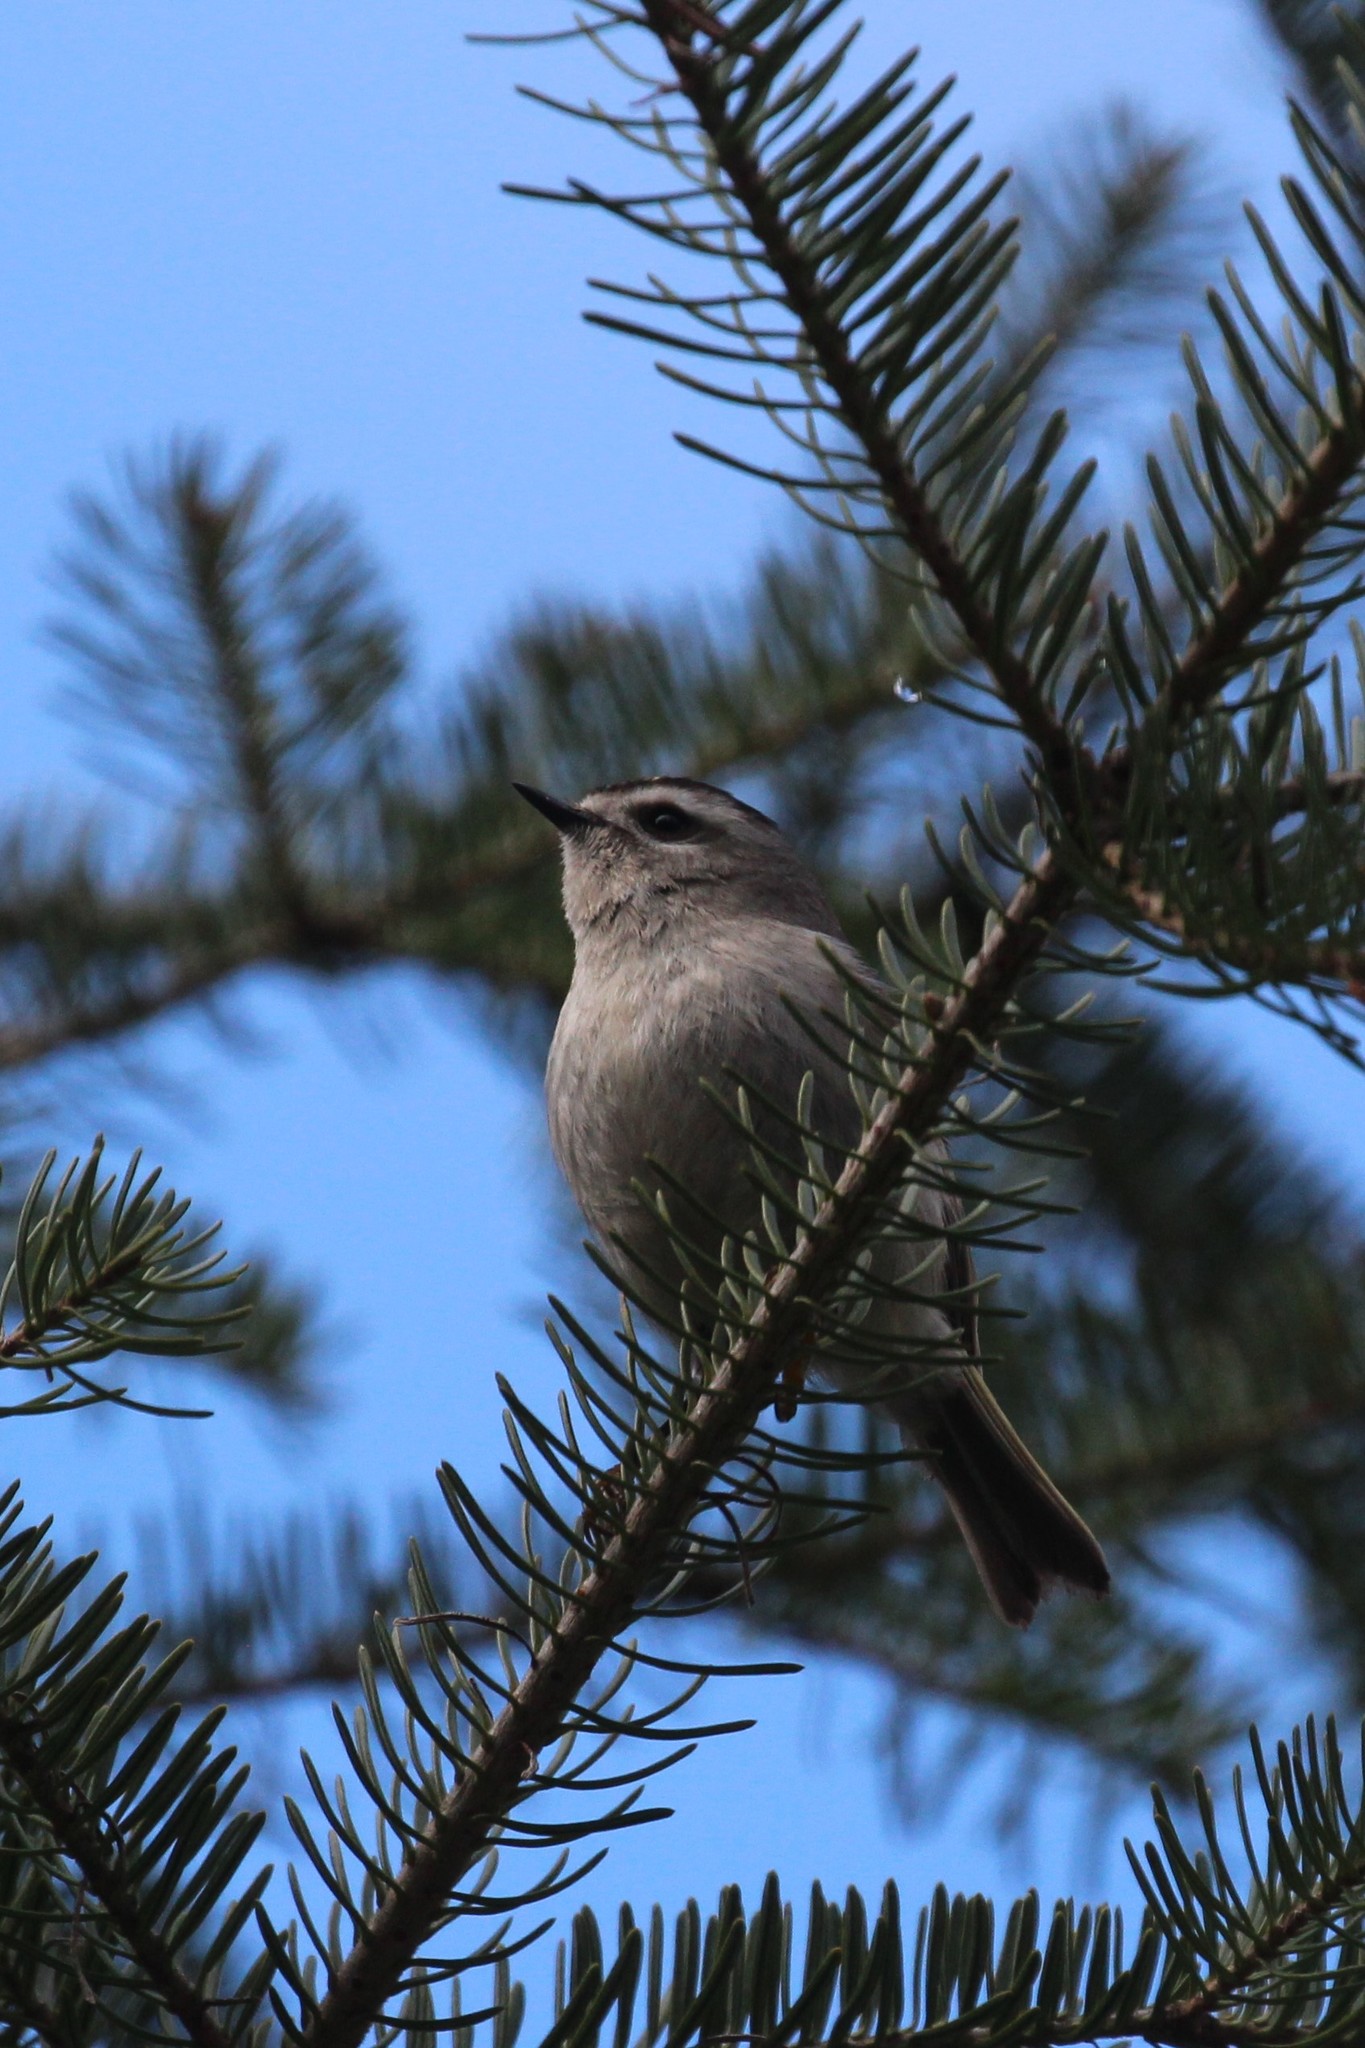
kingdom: Animalia
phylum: Chordata
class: Aves
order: Passeriformes
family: Regulidae
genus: Regulus
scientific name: Regulus satrapa
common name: Golden-crowned kinglet
